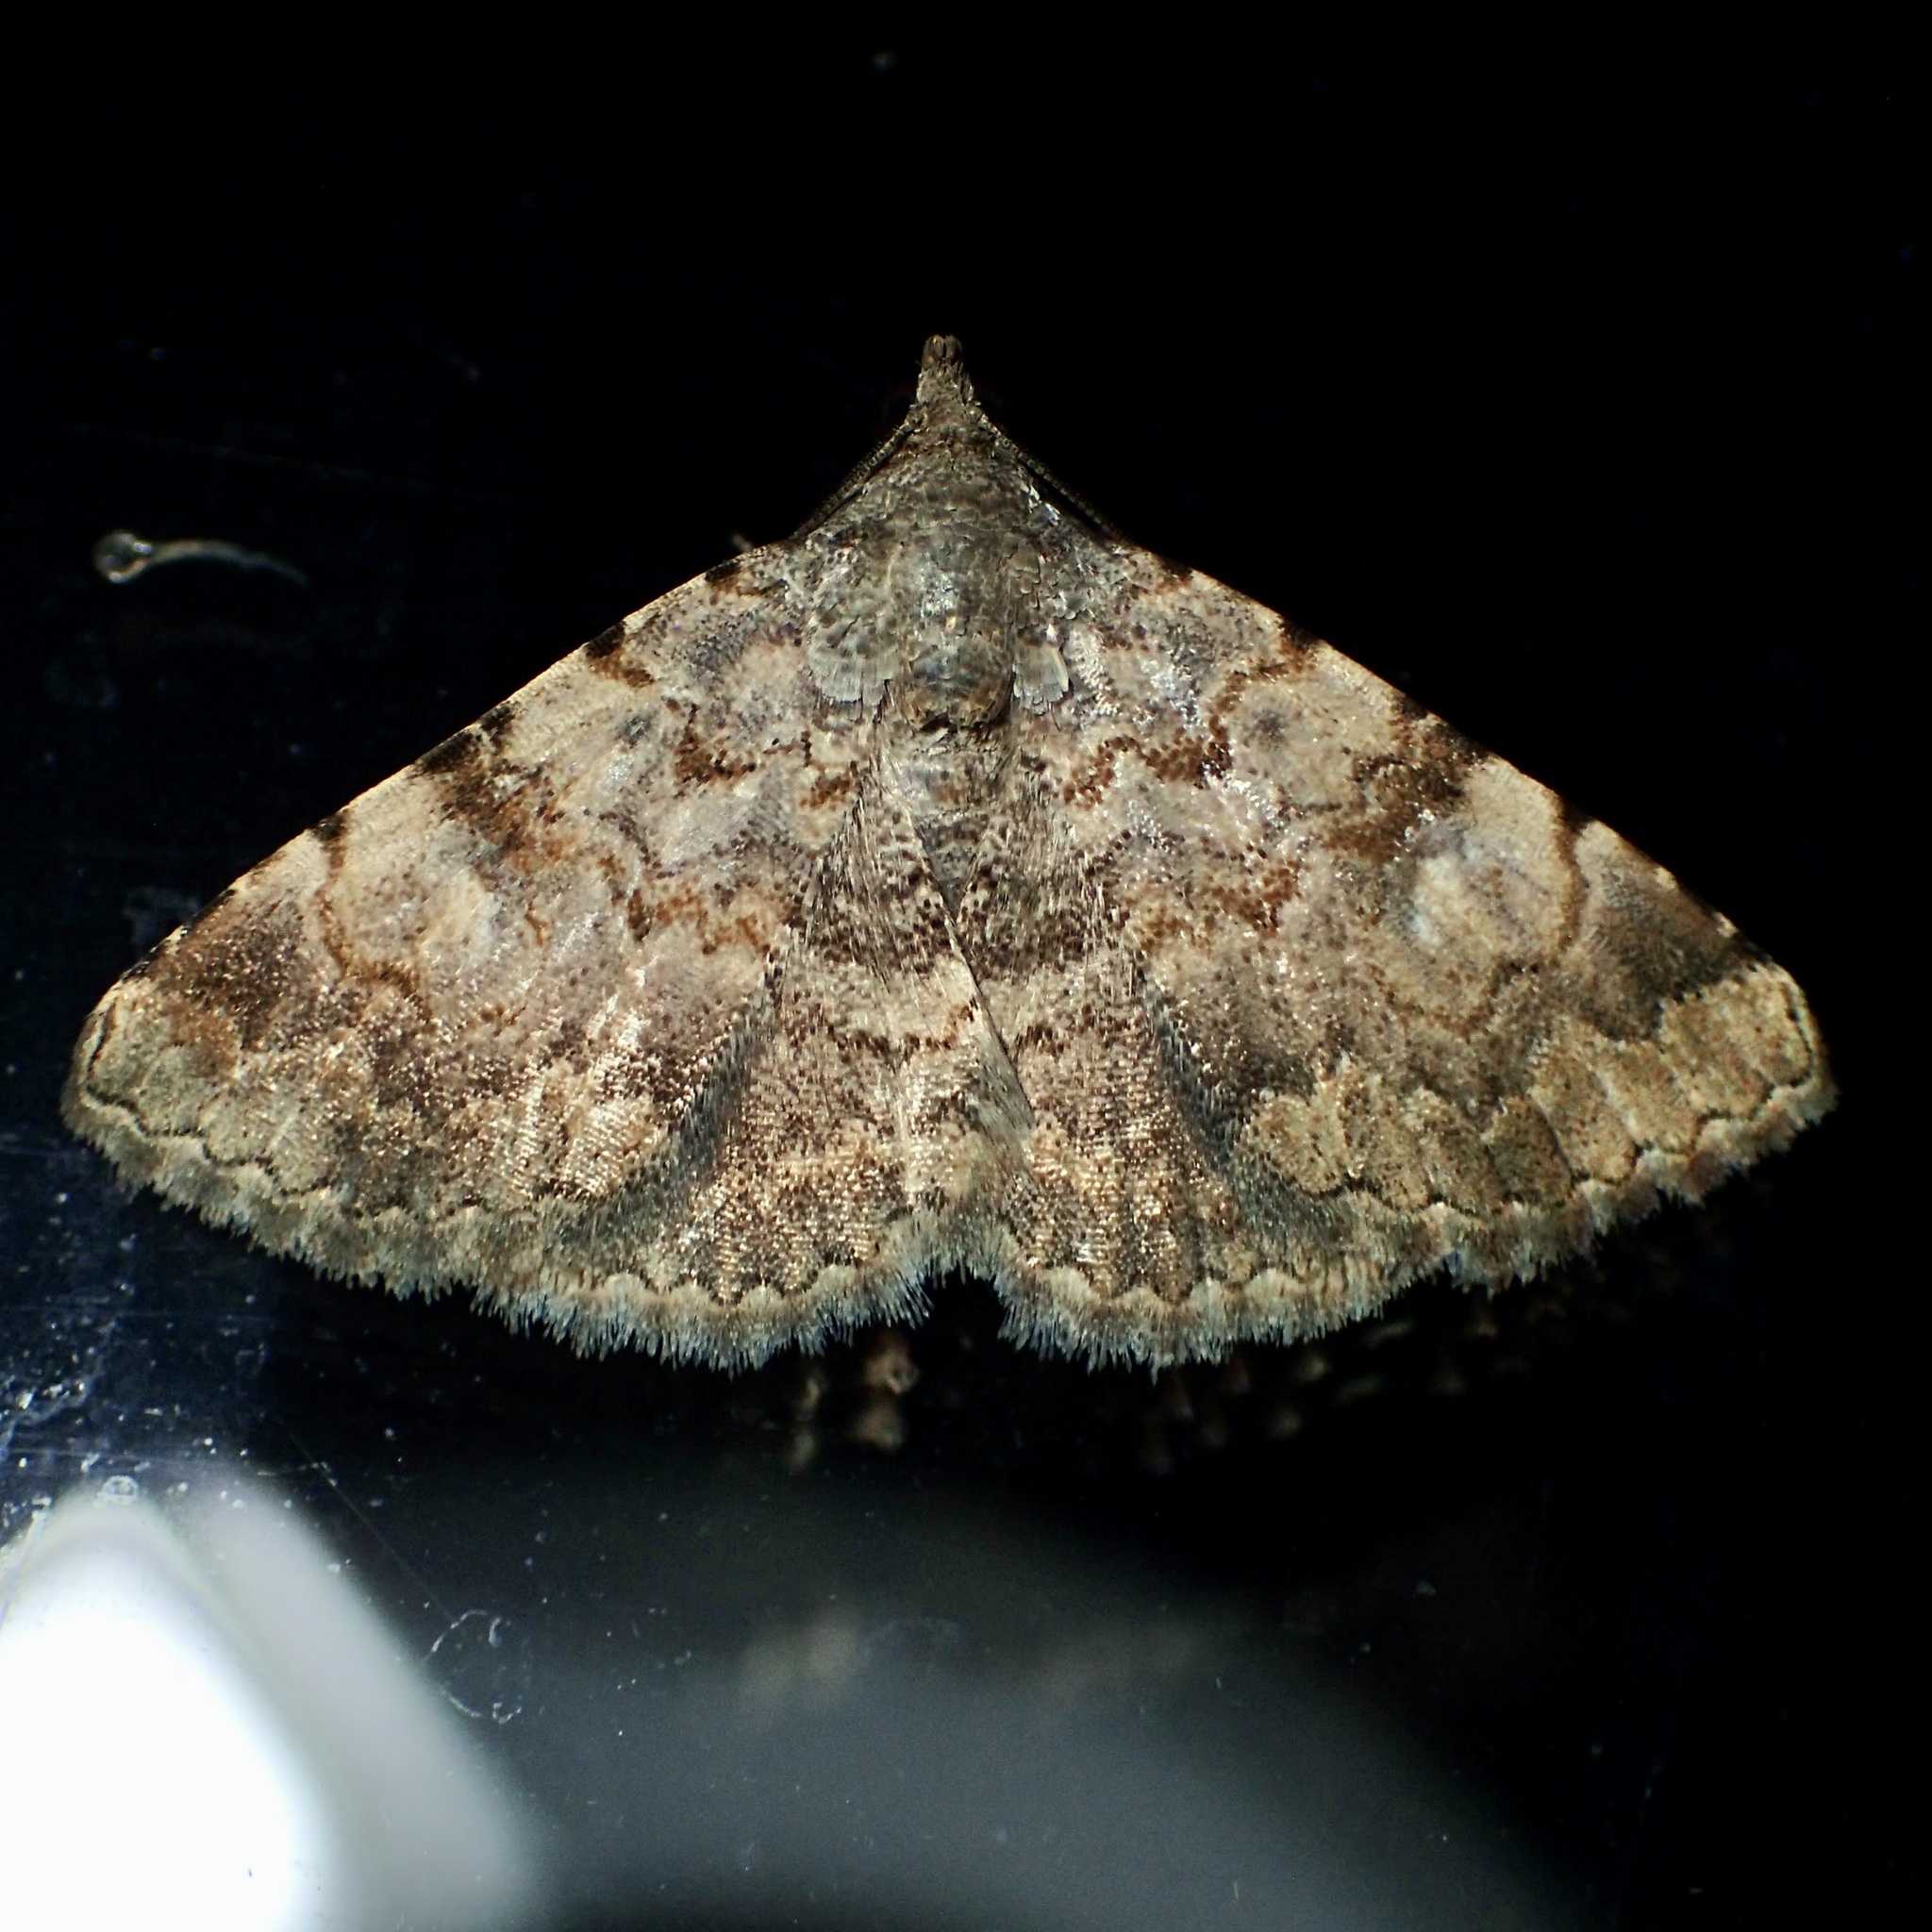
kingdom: Animalia
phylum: Arthropoda
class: Insecta
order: Lepidoptera
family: Erebidae
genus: Toxonprucha
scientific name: Toxonprucha volucris
